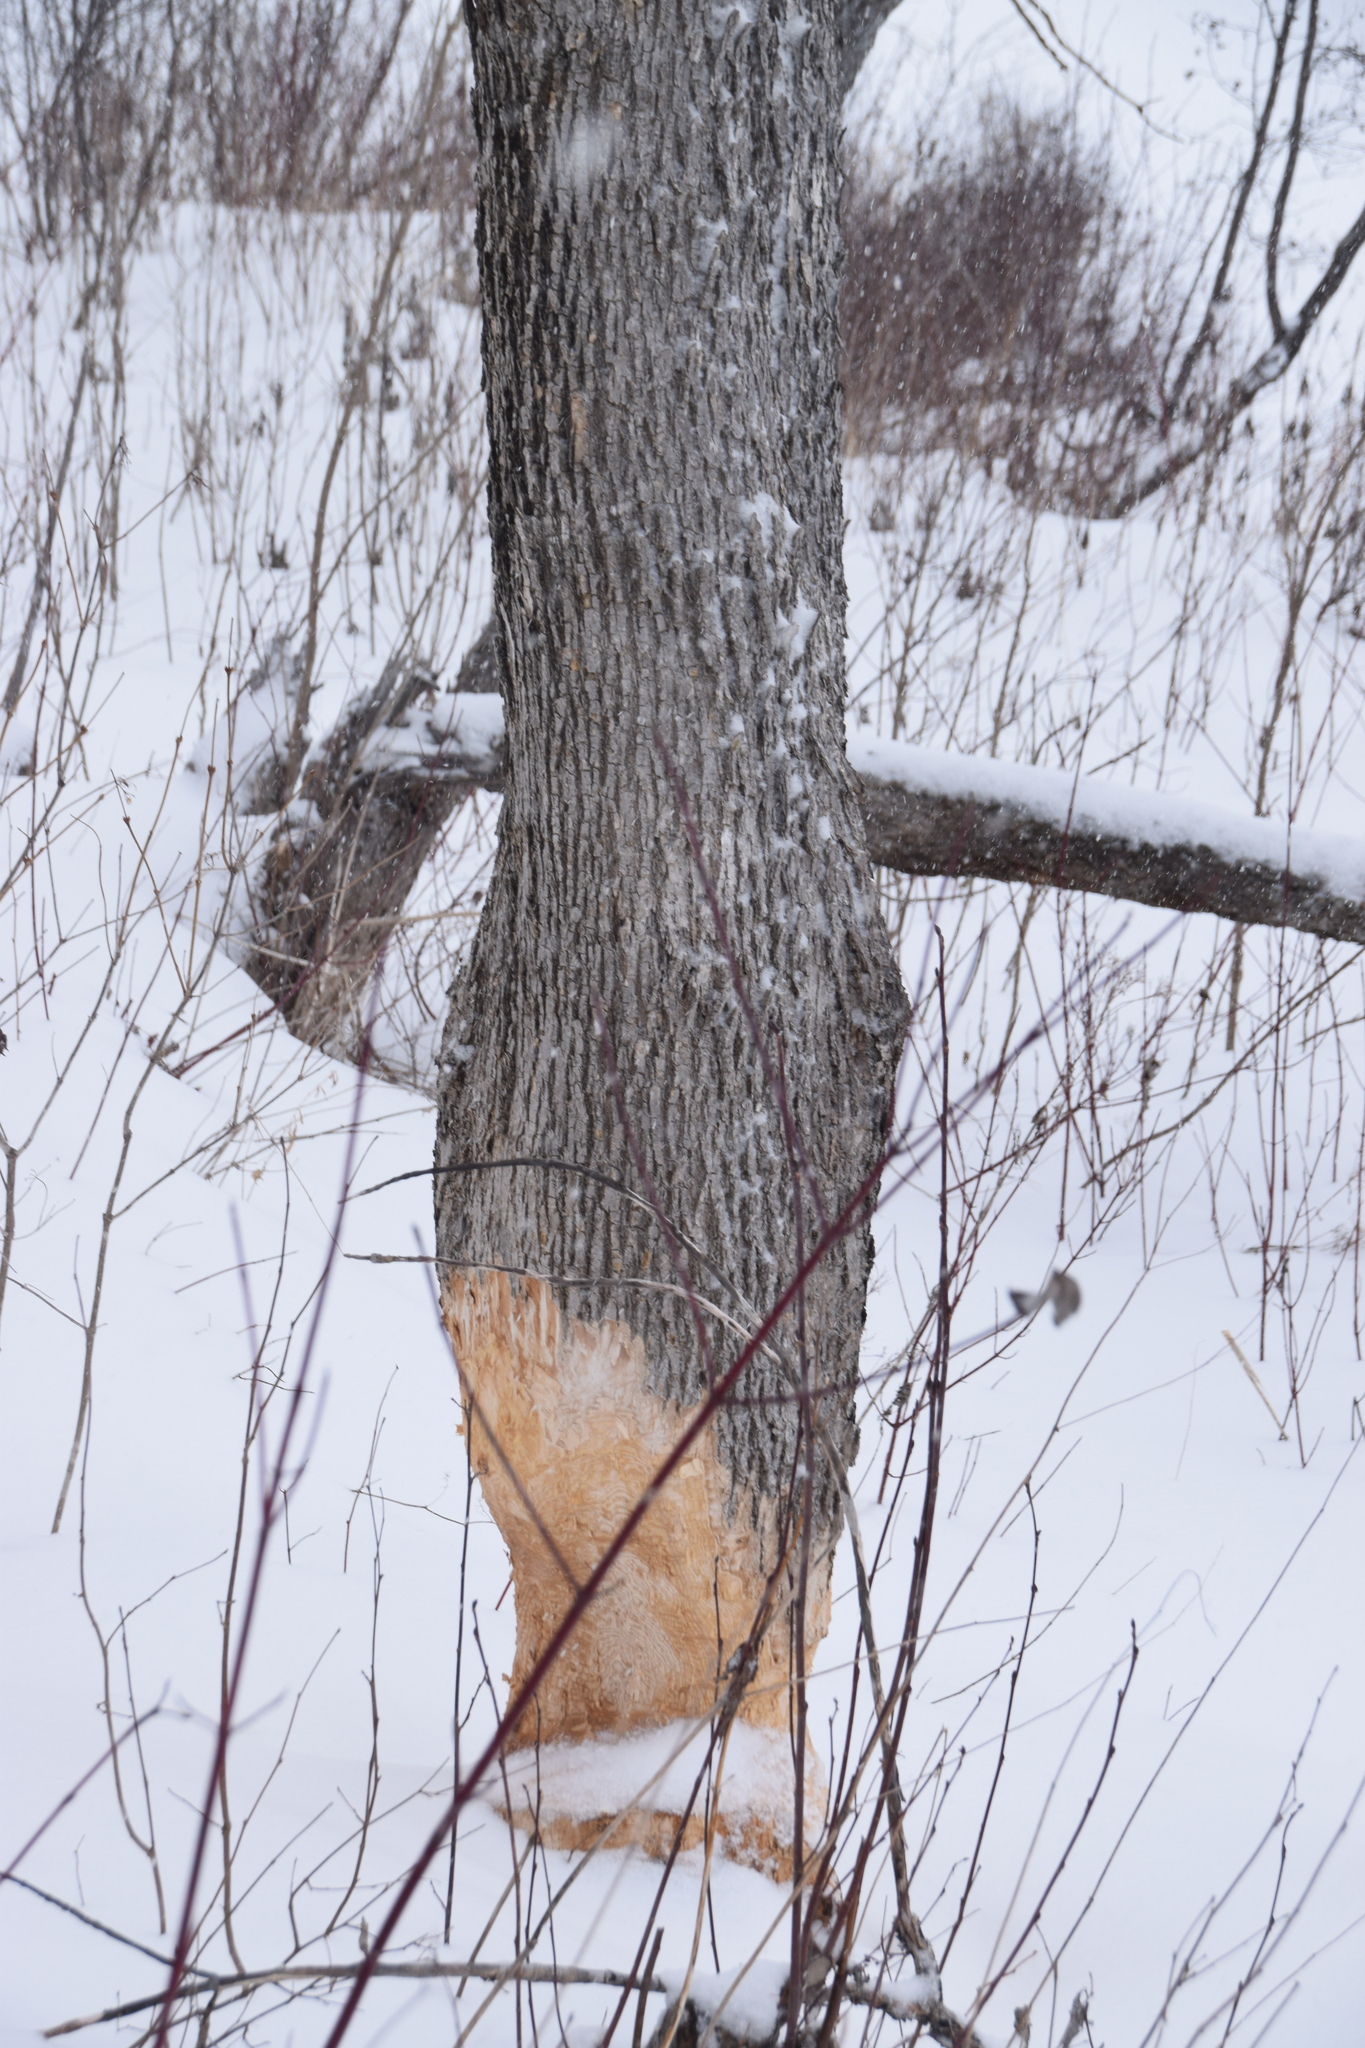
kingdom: Plantae
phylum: Tracheophyta
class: Magnoliopsida
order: Lamiales
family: Oleaceae
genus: Fraxinus
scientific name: Fraxinus nigra
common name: Black ash
